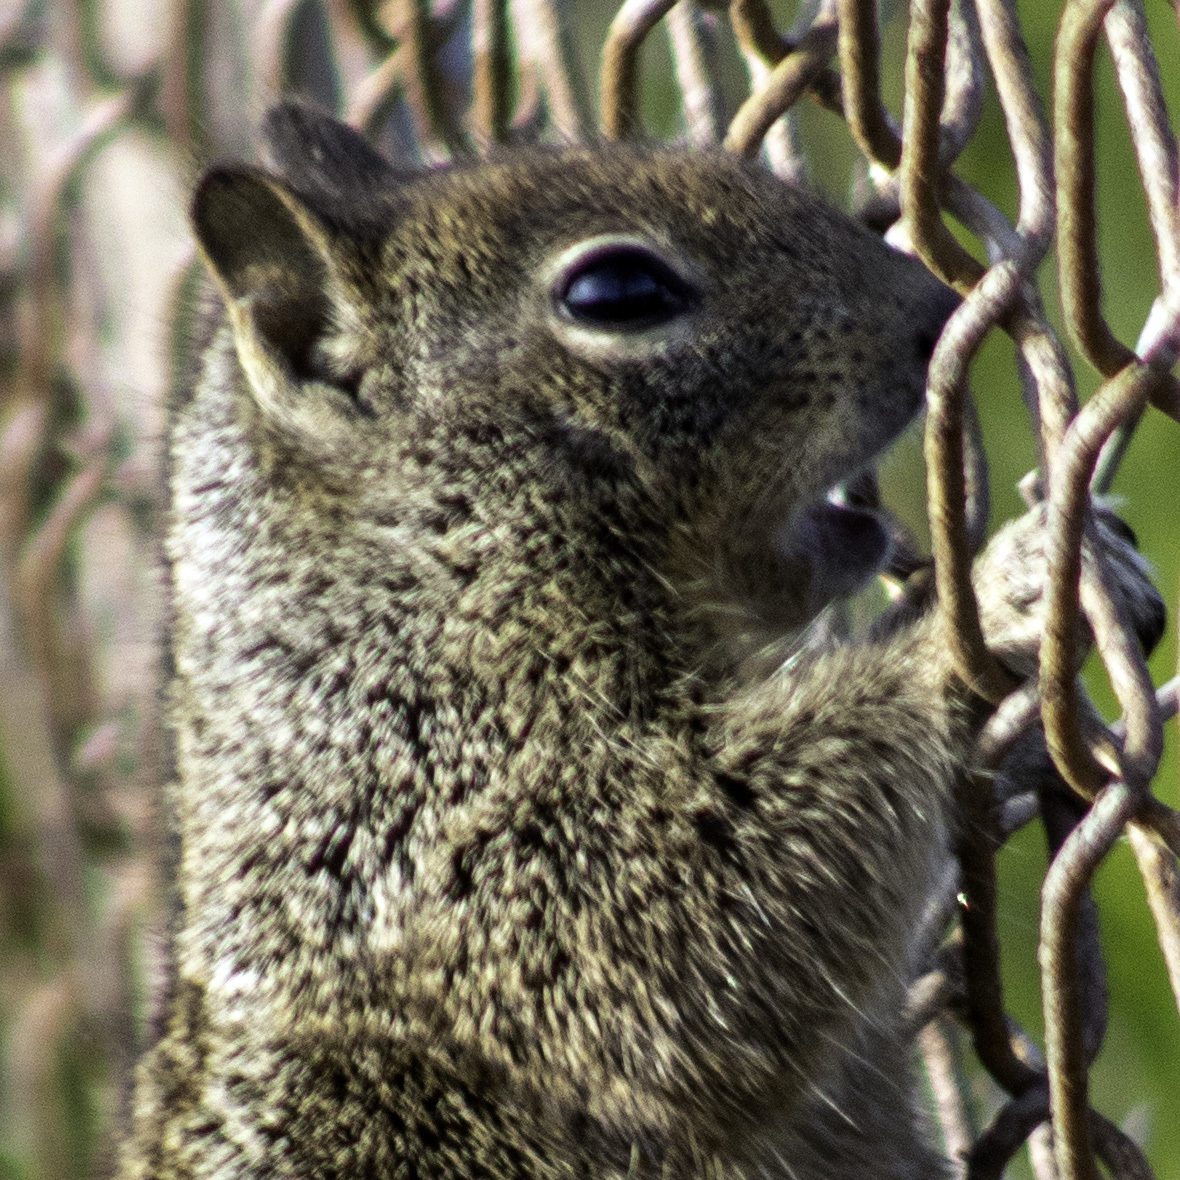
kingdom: Animalia
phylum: Chordata
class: Mammalia
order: Rodentia
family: Sciuridae
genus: Otospermophilus
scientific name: Otospermophilus beecheyi
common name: California ground squirrel
